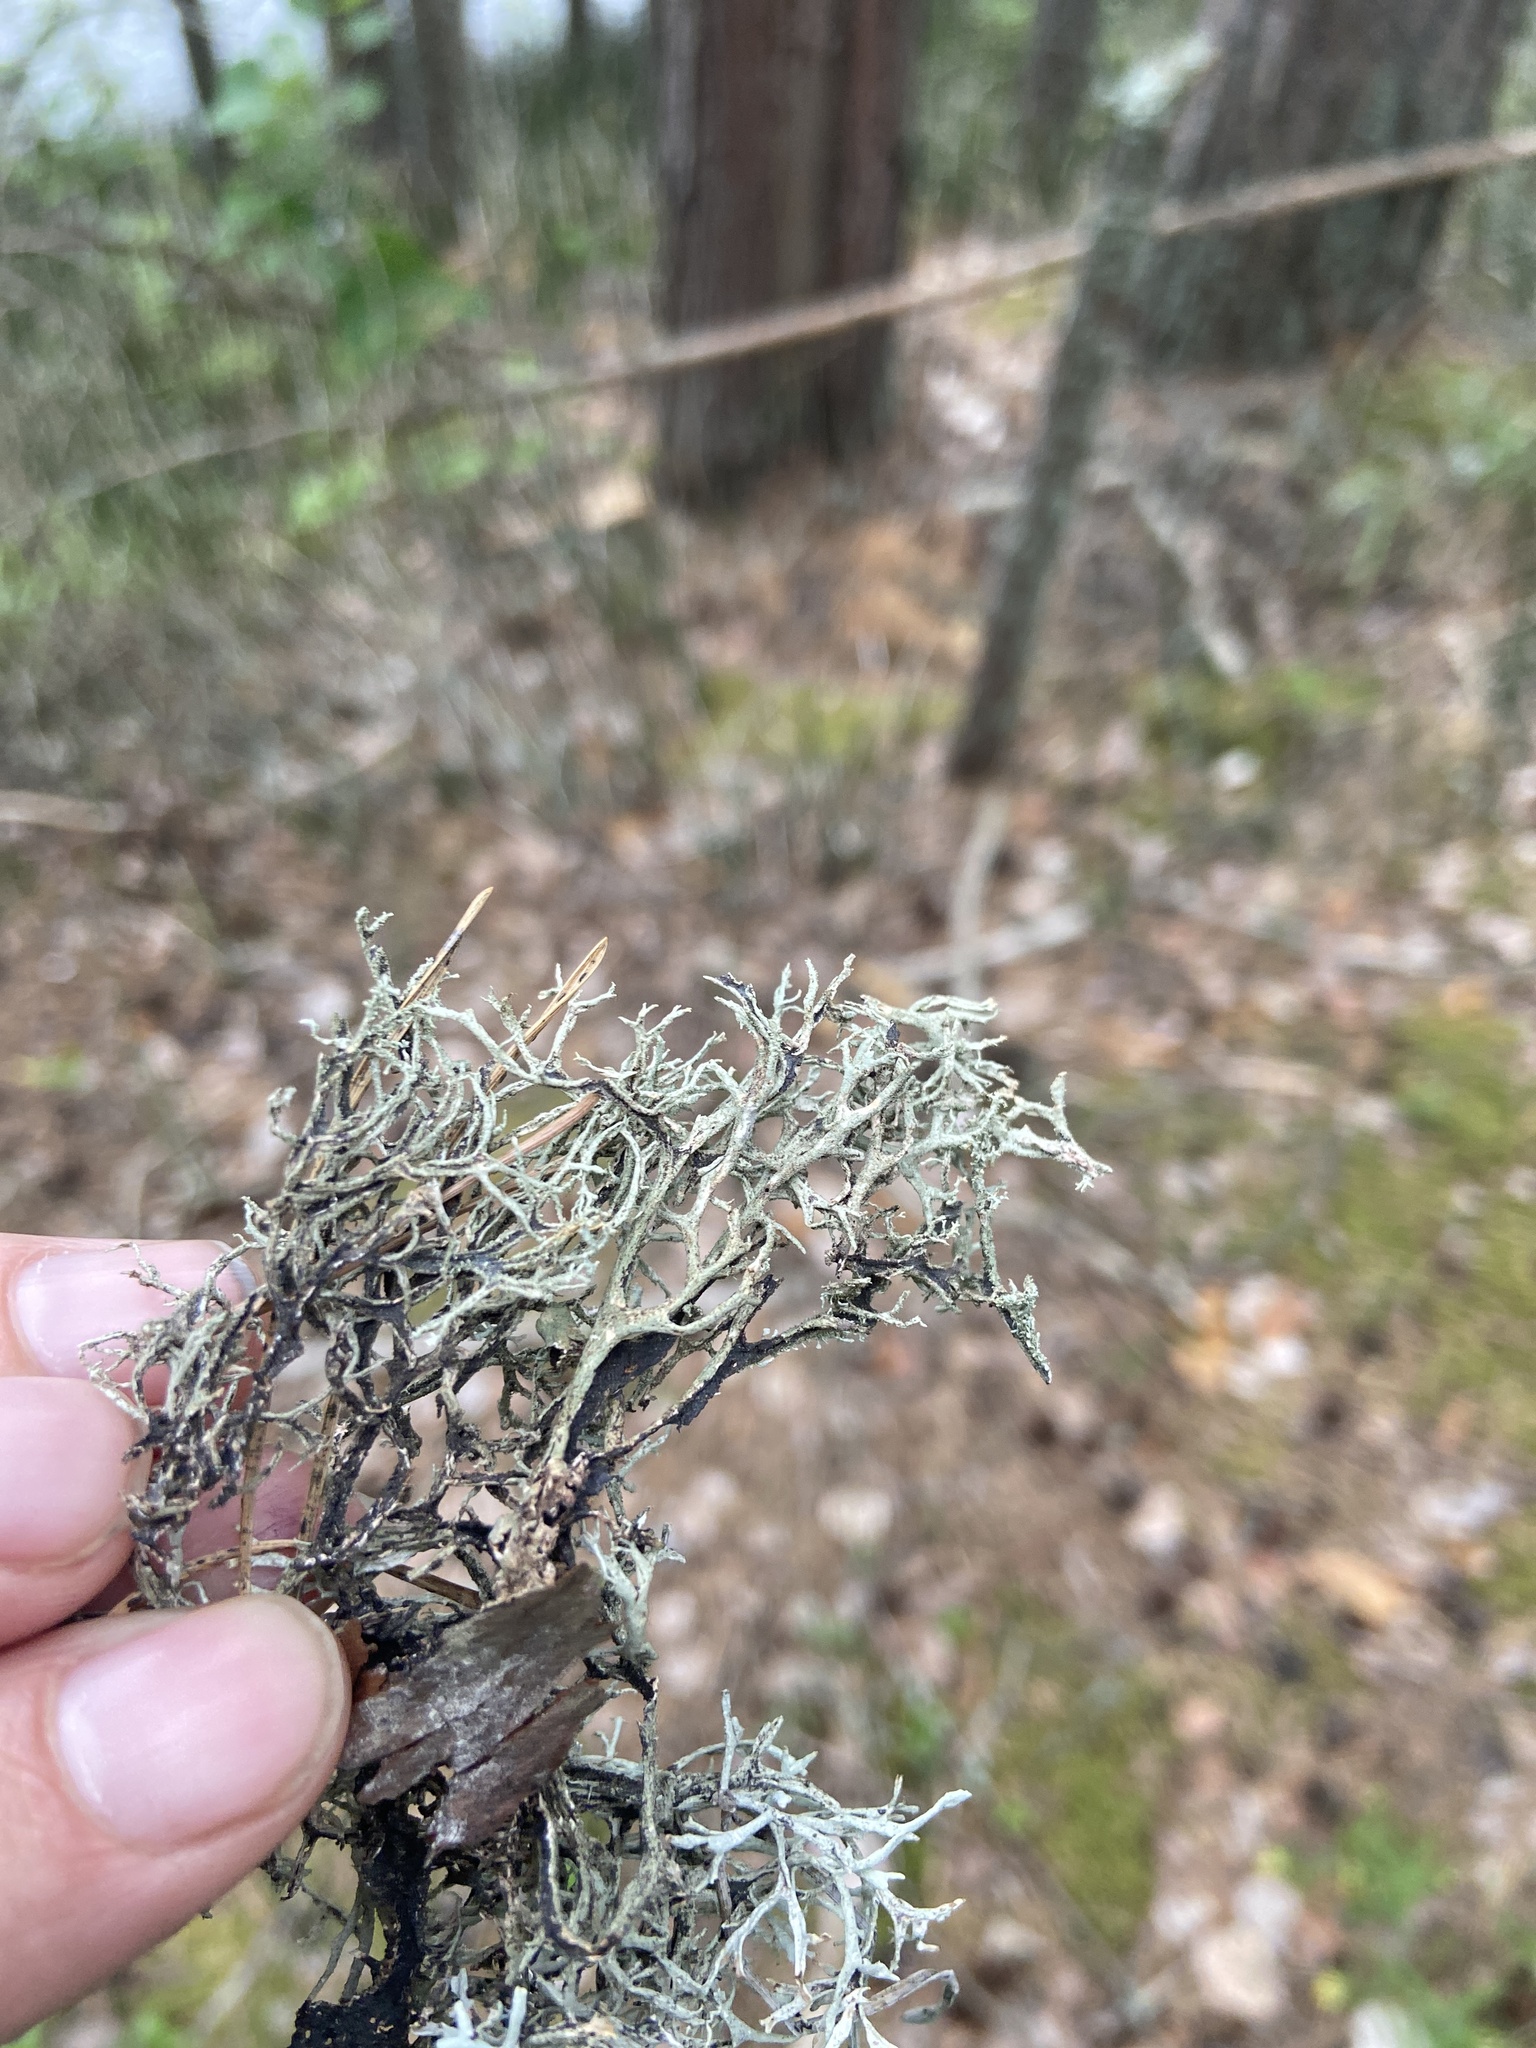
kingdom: Fungi
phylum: Ascomycota
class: Lecanoromycetes
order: Lecanorales
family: Parmeliaceae
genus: Pseudevernia
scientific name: Pseudevernia furfuracea
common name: Tree moss
